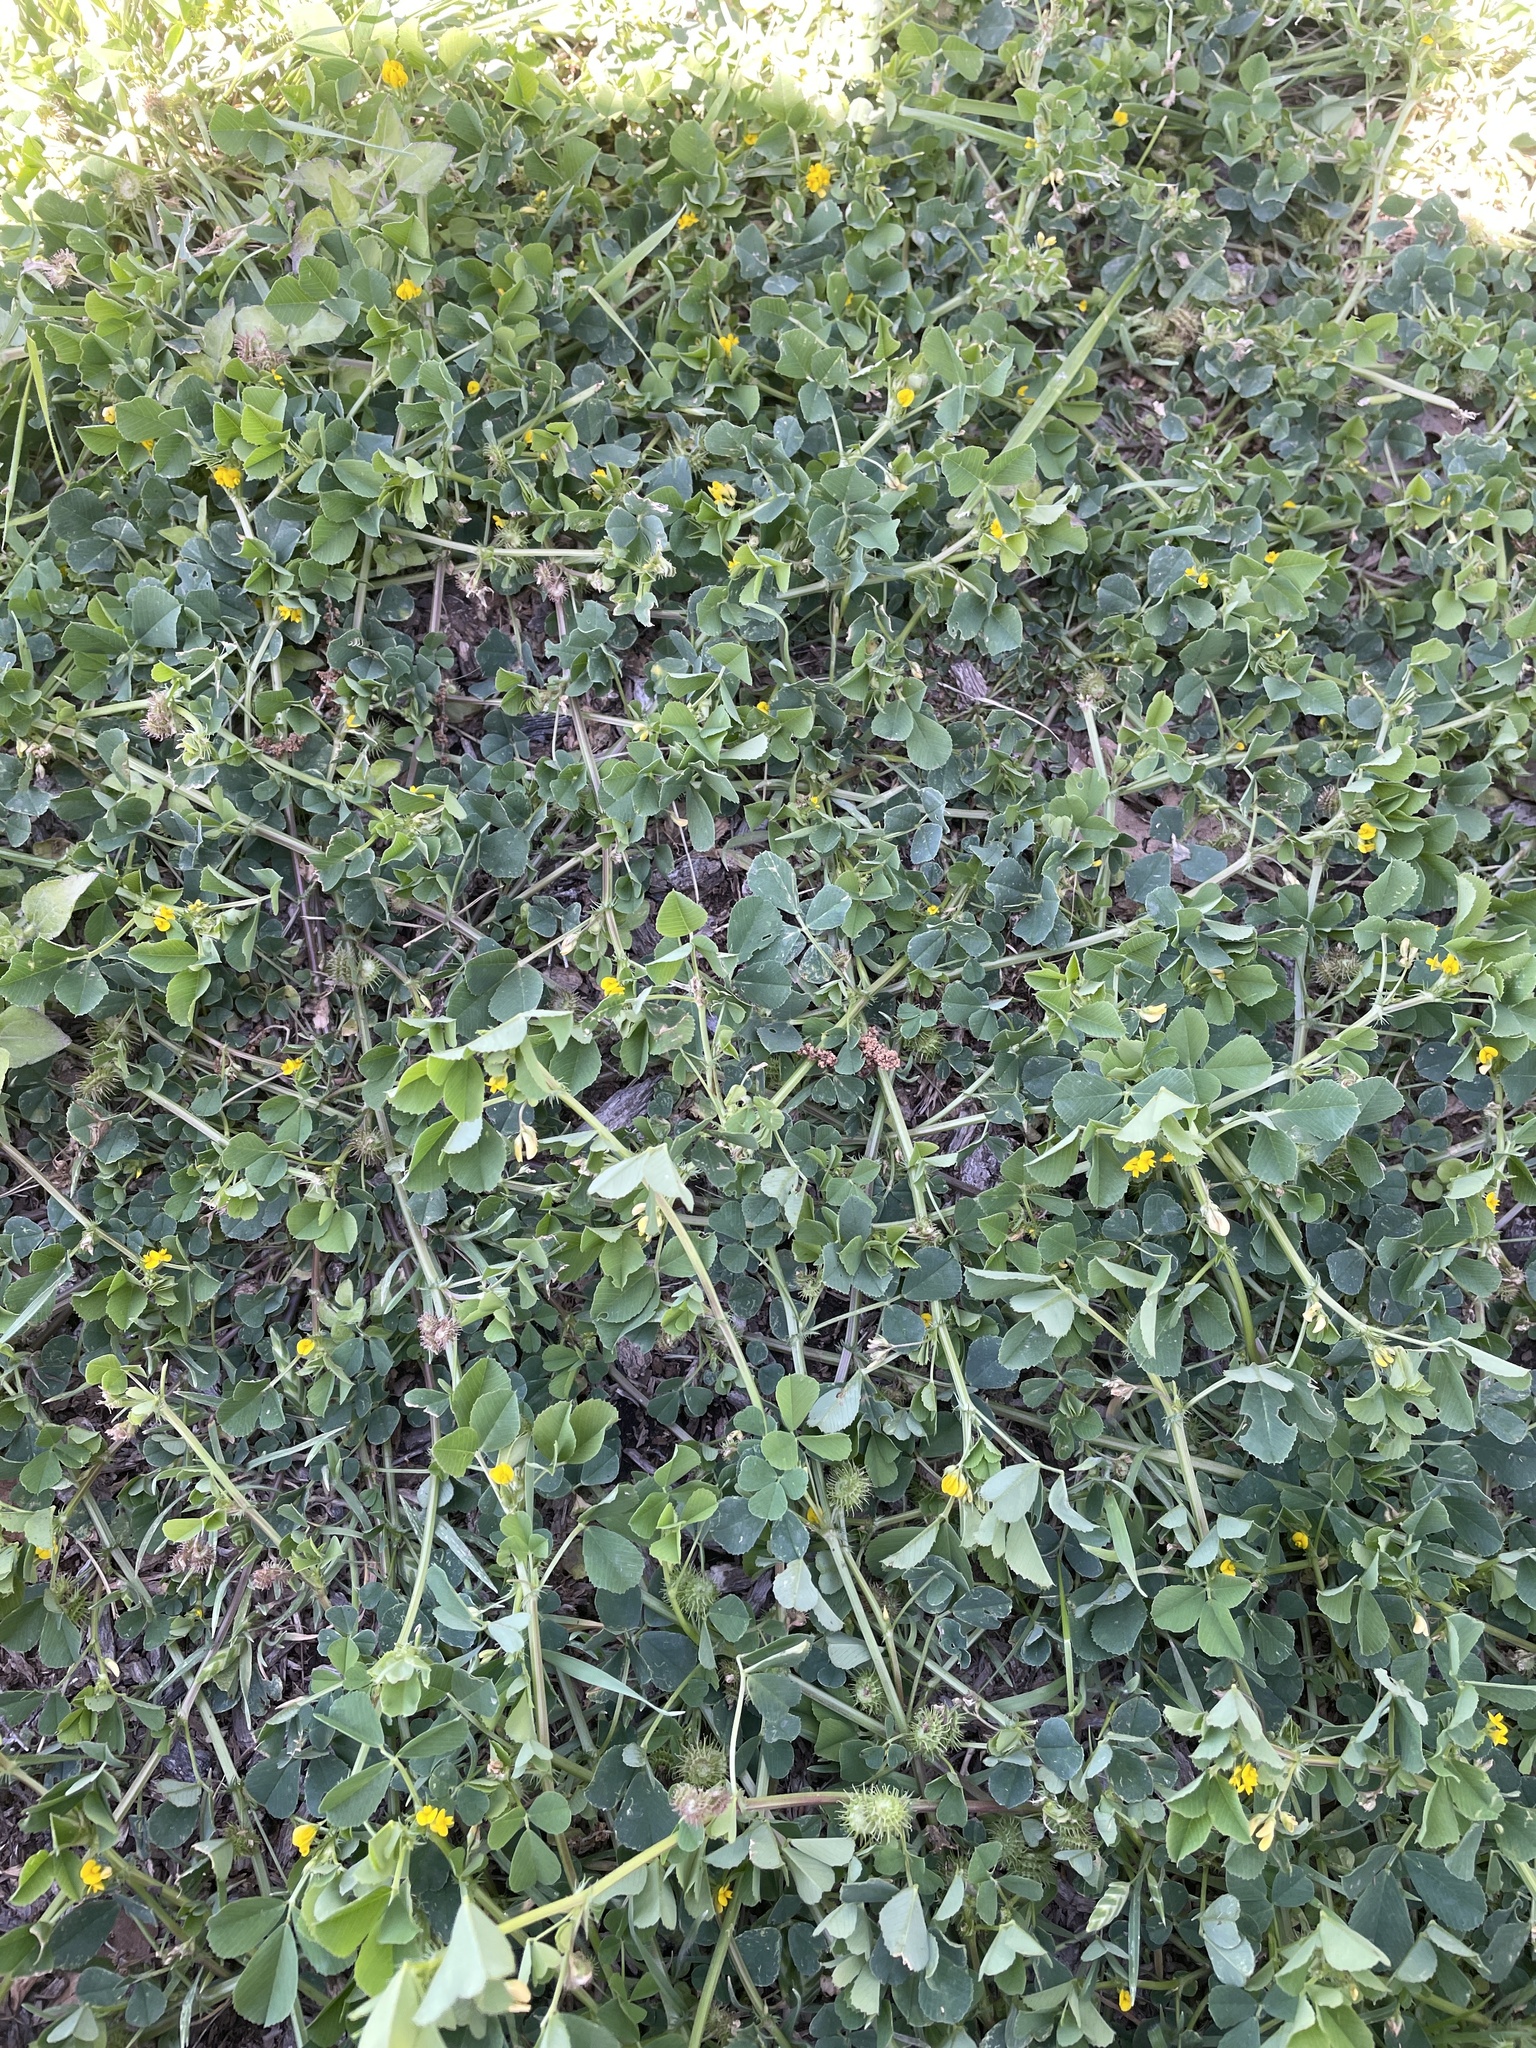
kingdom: Plantae
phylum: Tracheophyta
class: Magnoliopsida
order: Fabales
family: Fabaceae
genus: Medicago
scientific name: Medicago polymorpha
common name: Burclover
